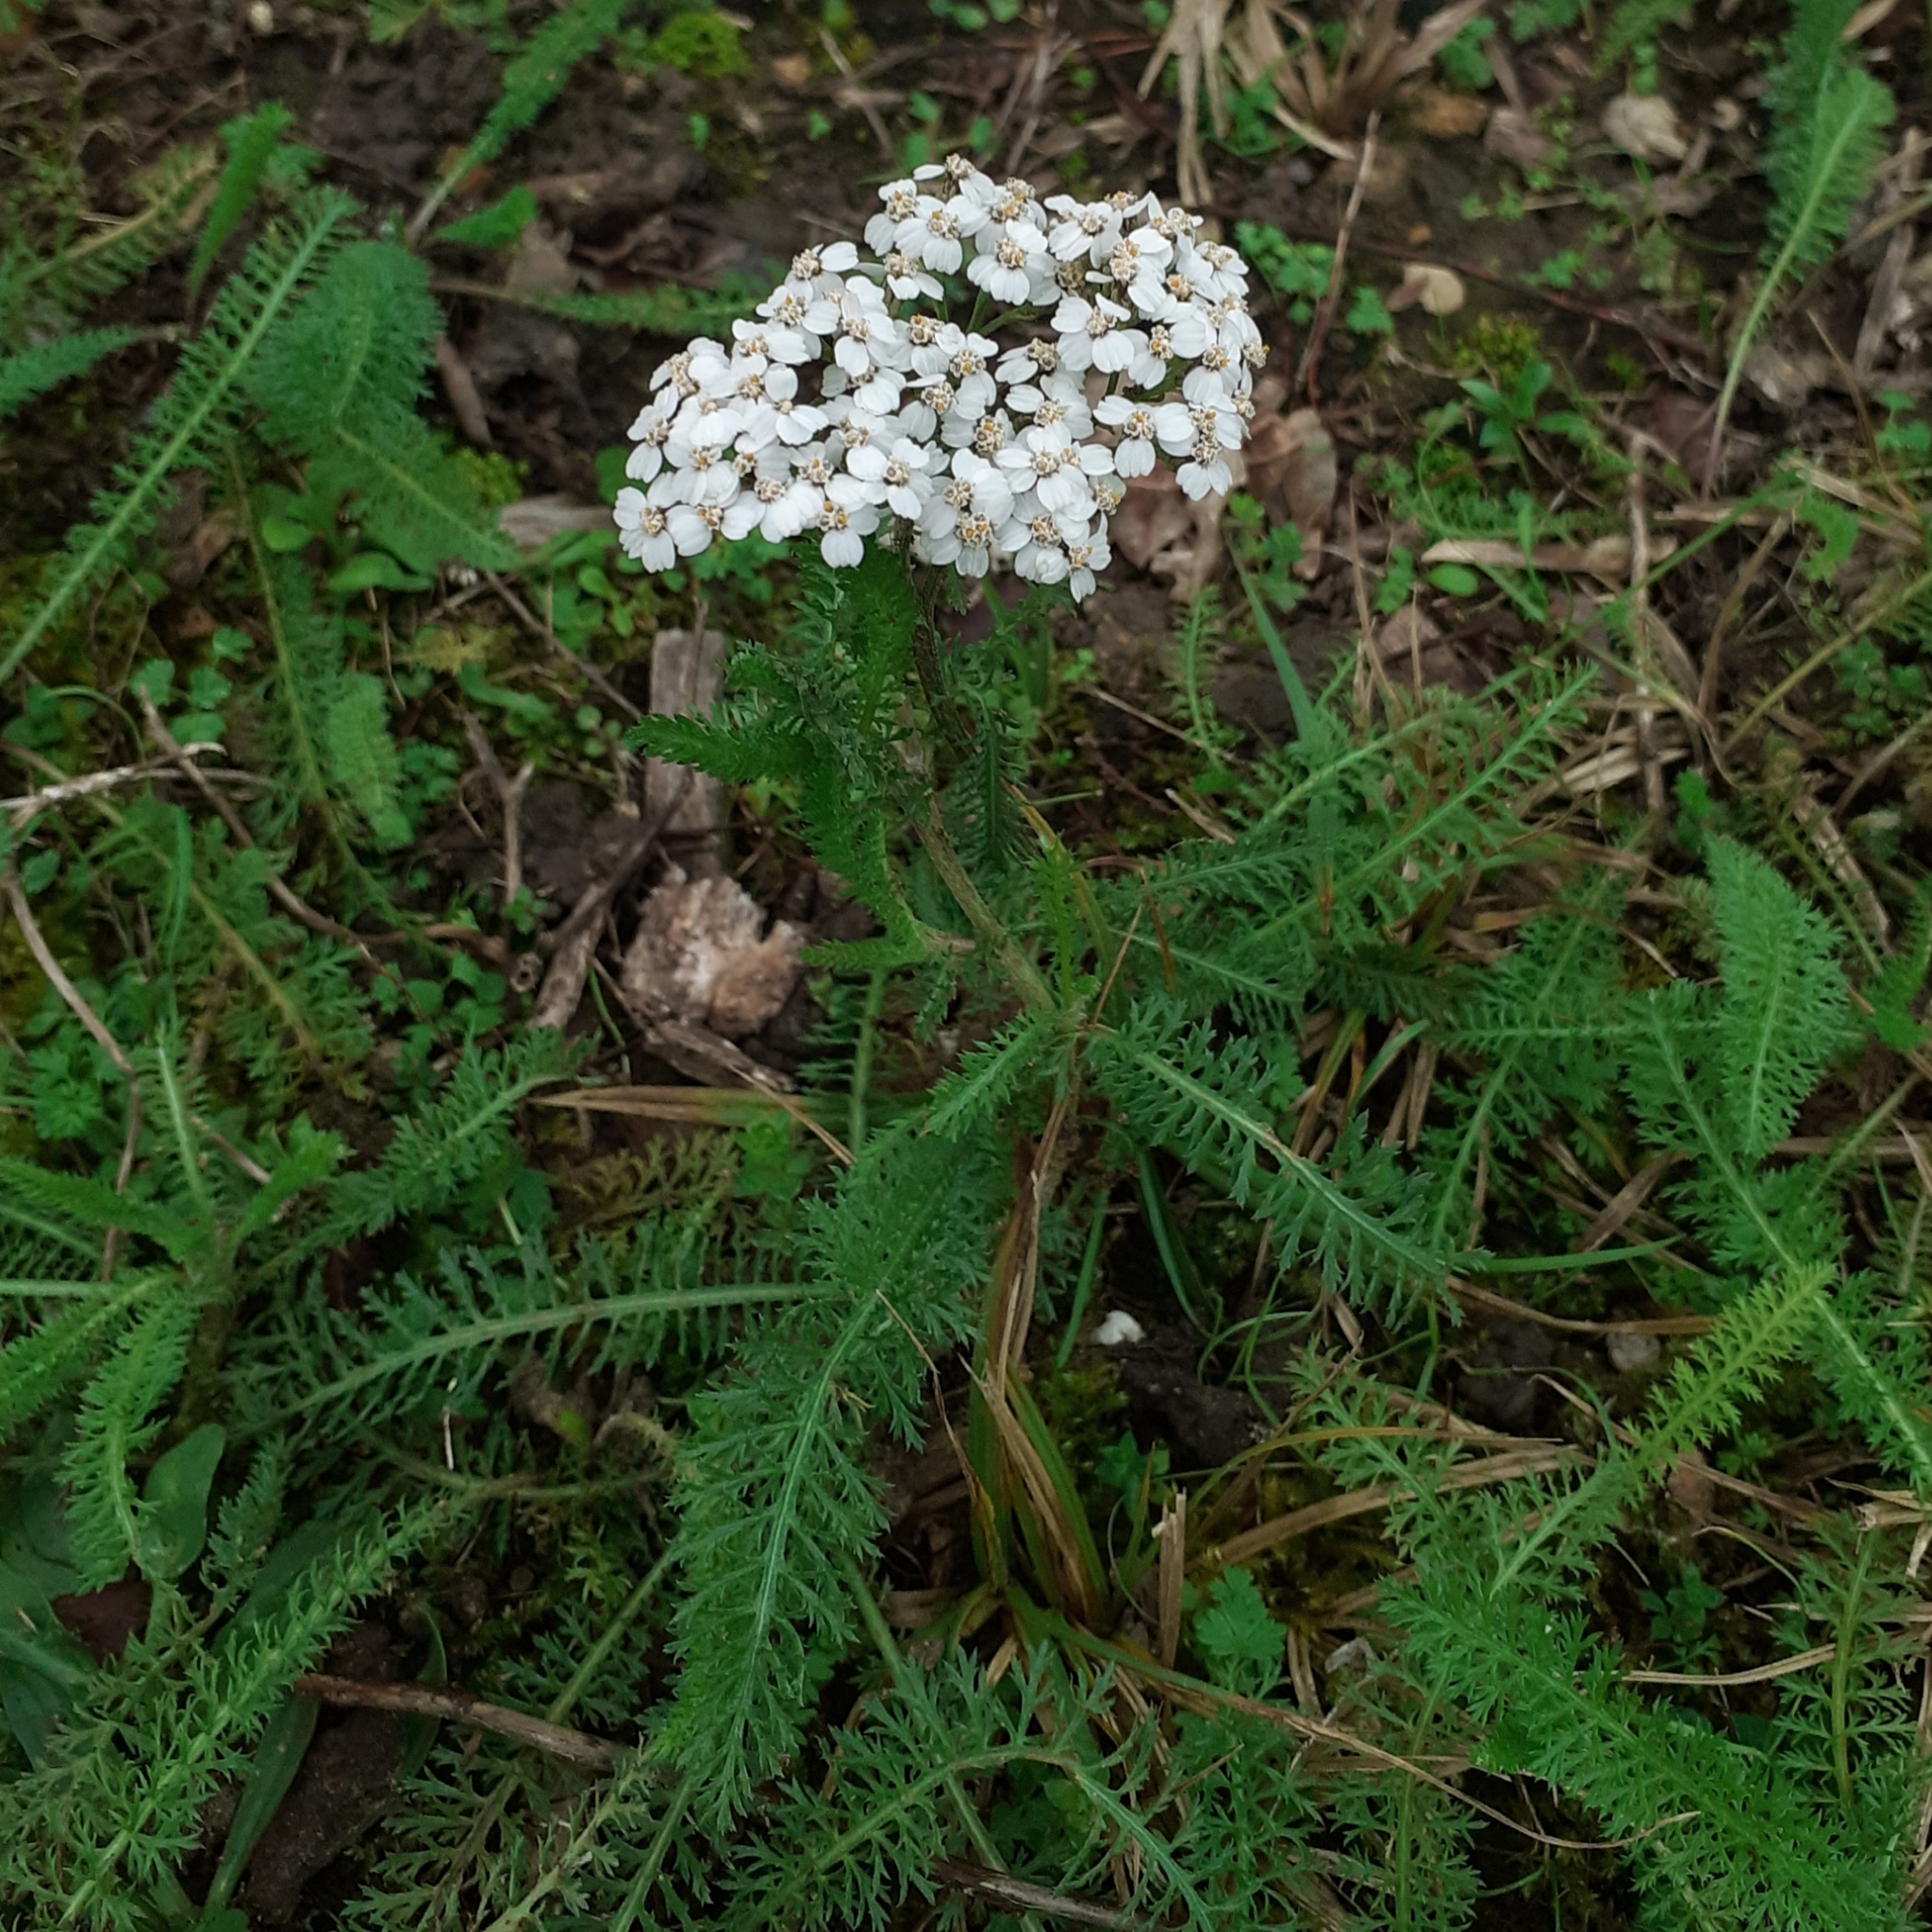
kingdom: Plantae
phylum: Tracheophyta
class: Magnoliopsida
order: Asterales
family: Asteraceae
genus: Achillea
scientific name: Achillea millefolium
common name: Yarrow
